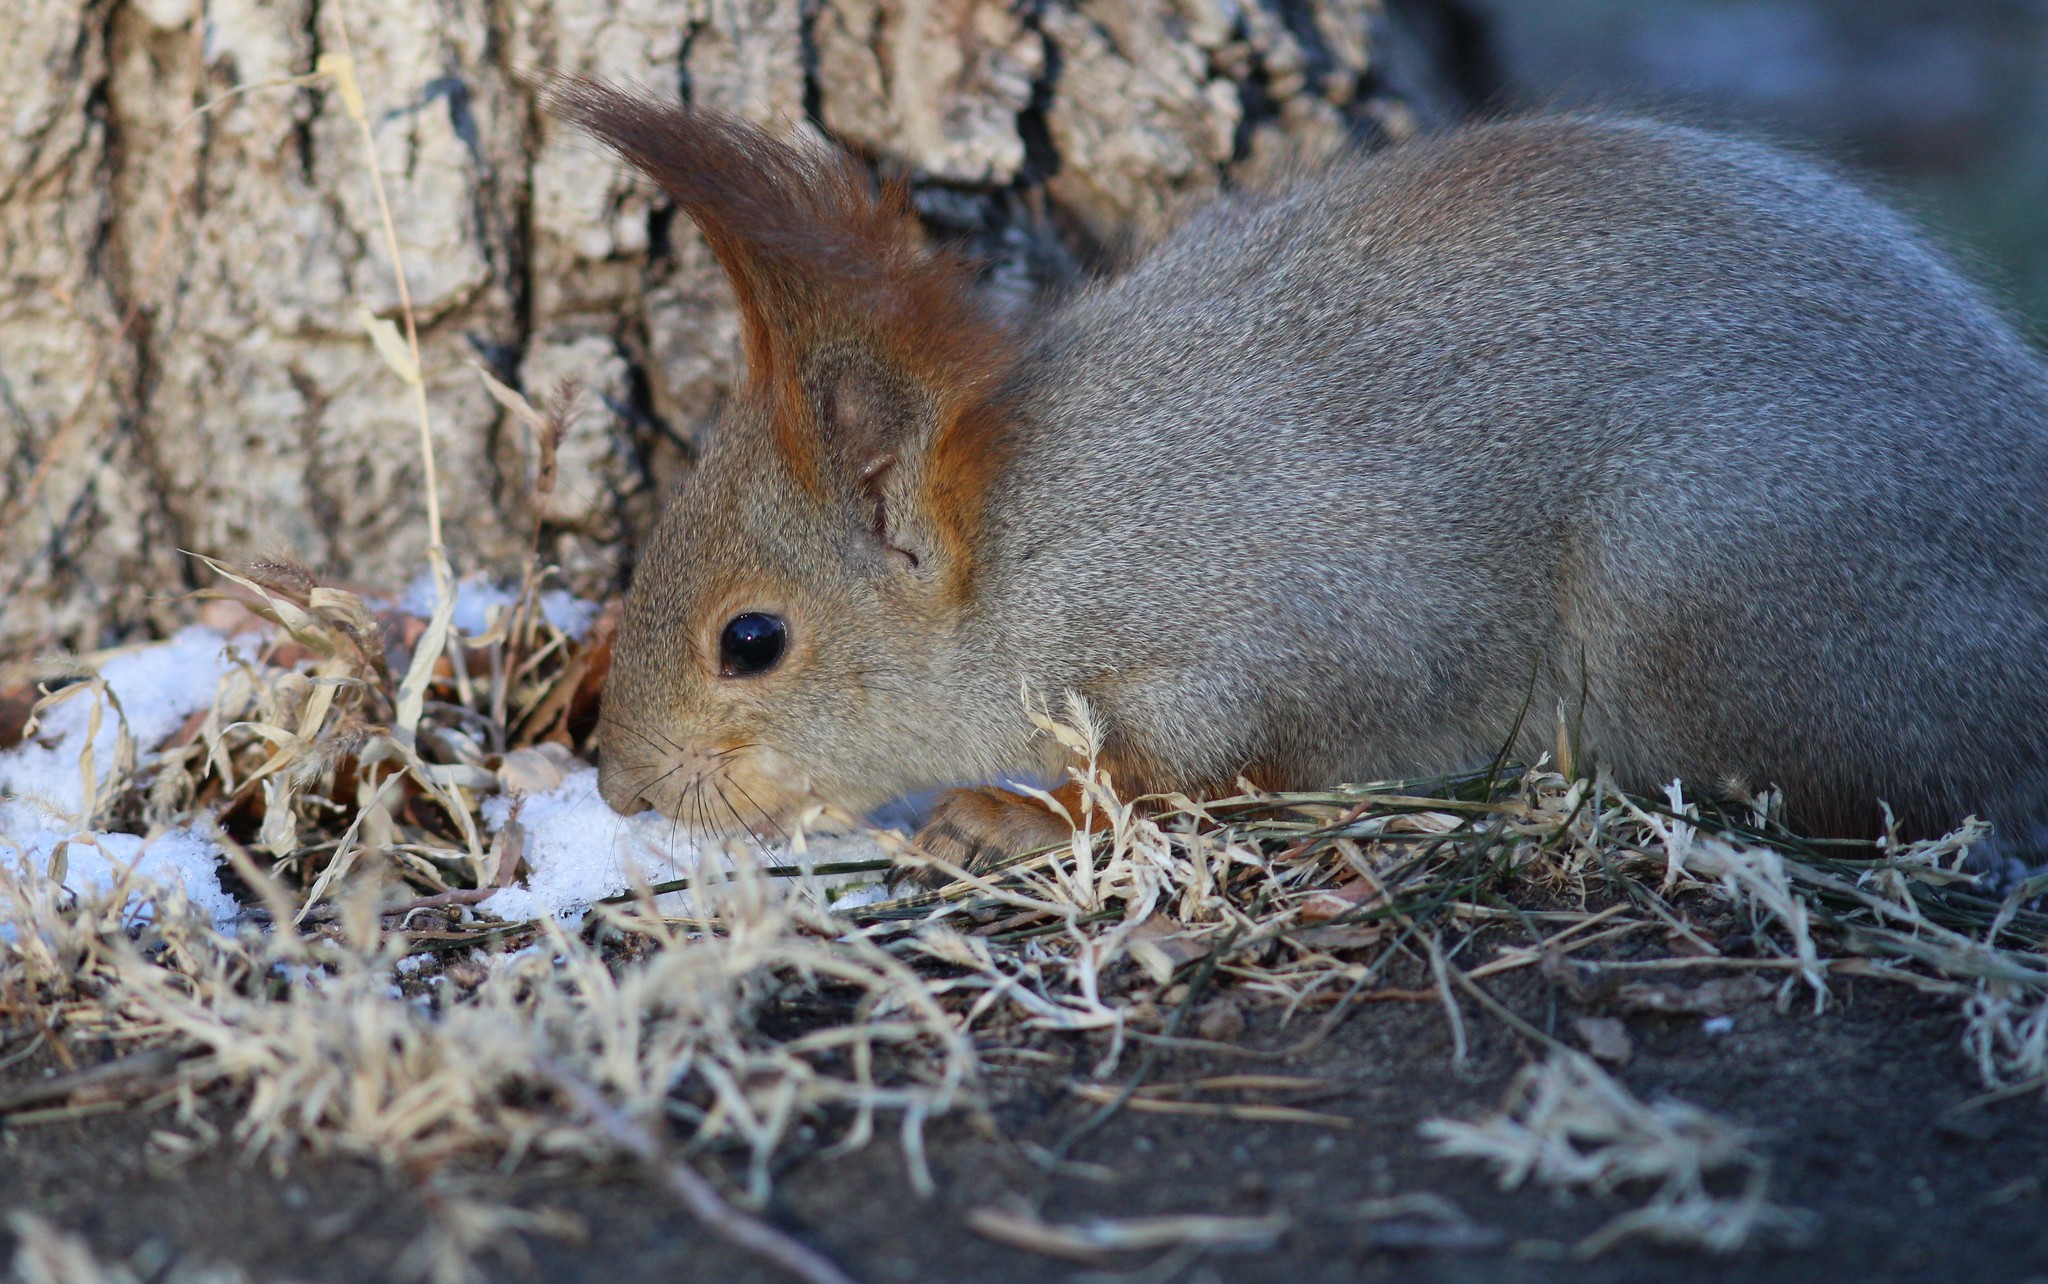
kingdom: Animalia
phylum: Chordata
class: Mammalia
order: Rodentia
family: Sciuridae
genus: Sciurus
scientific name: Sciurus vulgaris
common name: Eurasian red squirrel
